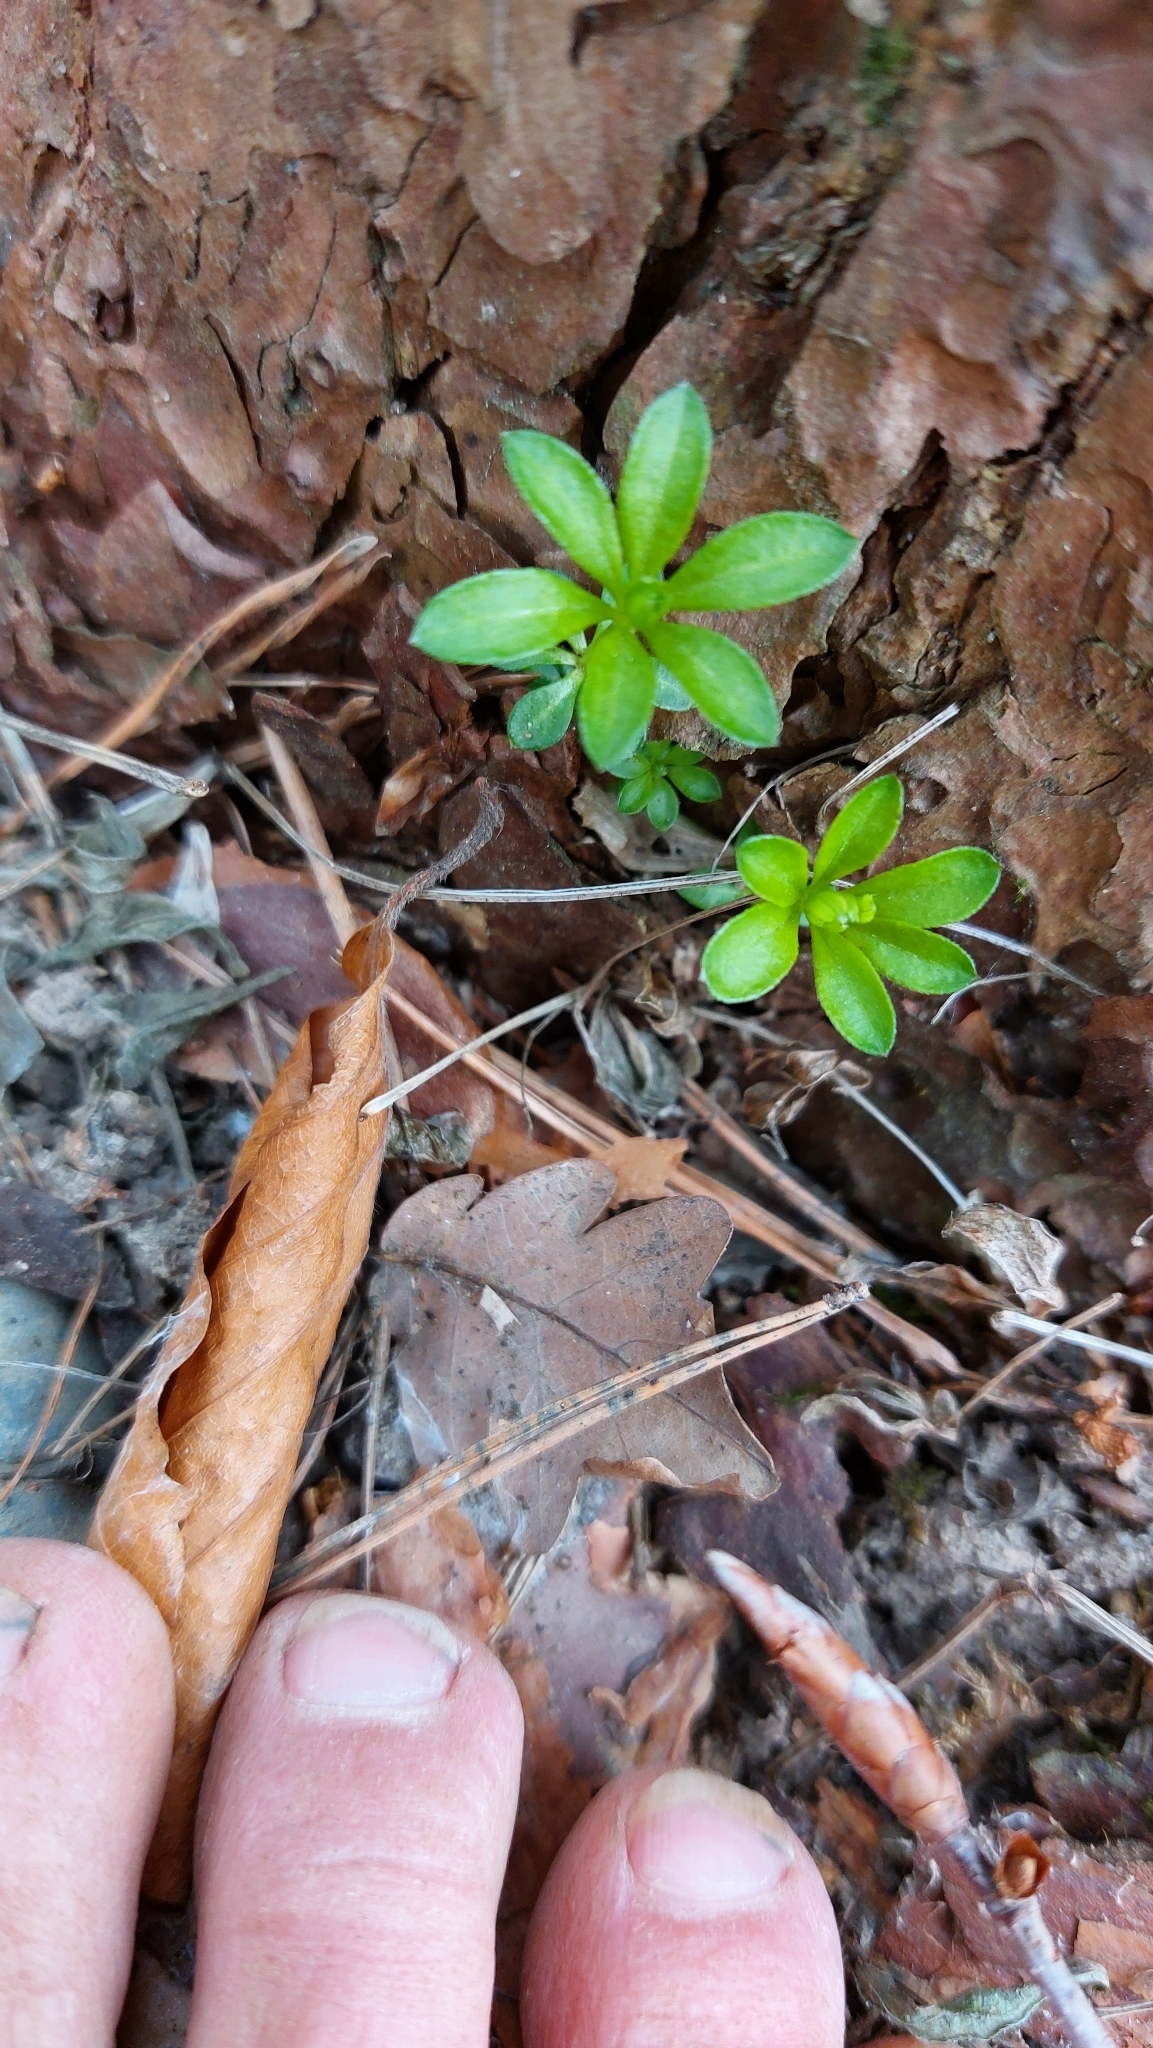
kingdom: Plantae
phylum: Tracheophyta
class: Magnoliopsida
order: Gentianales
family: Rubiaceae
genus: Galium
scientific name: Galium odoratum
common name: Sweet woodruff
